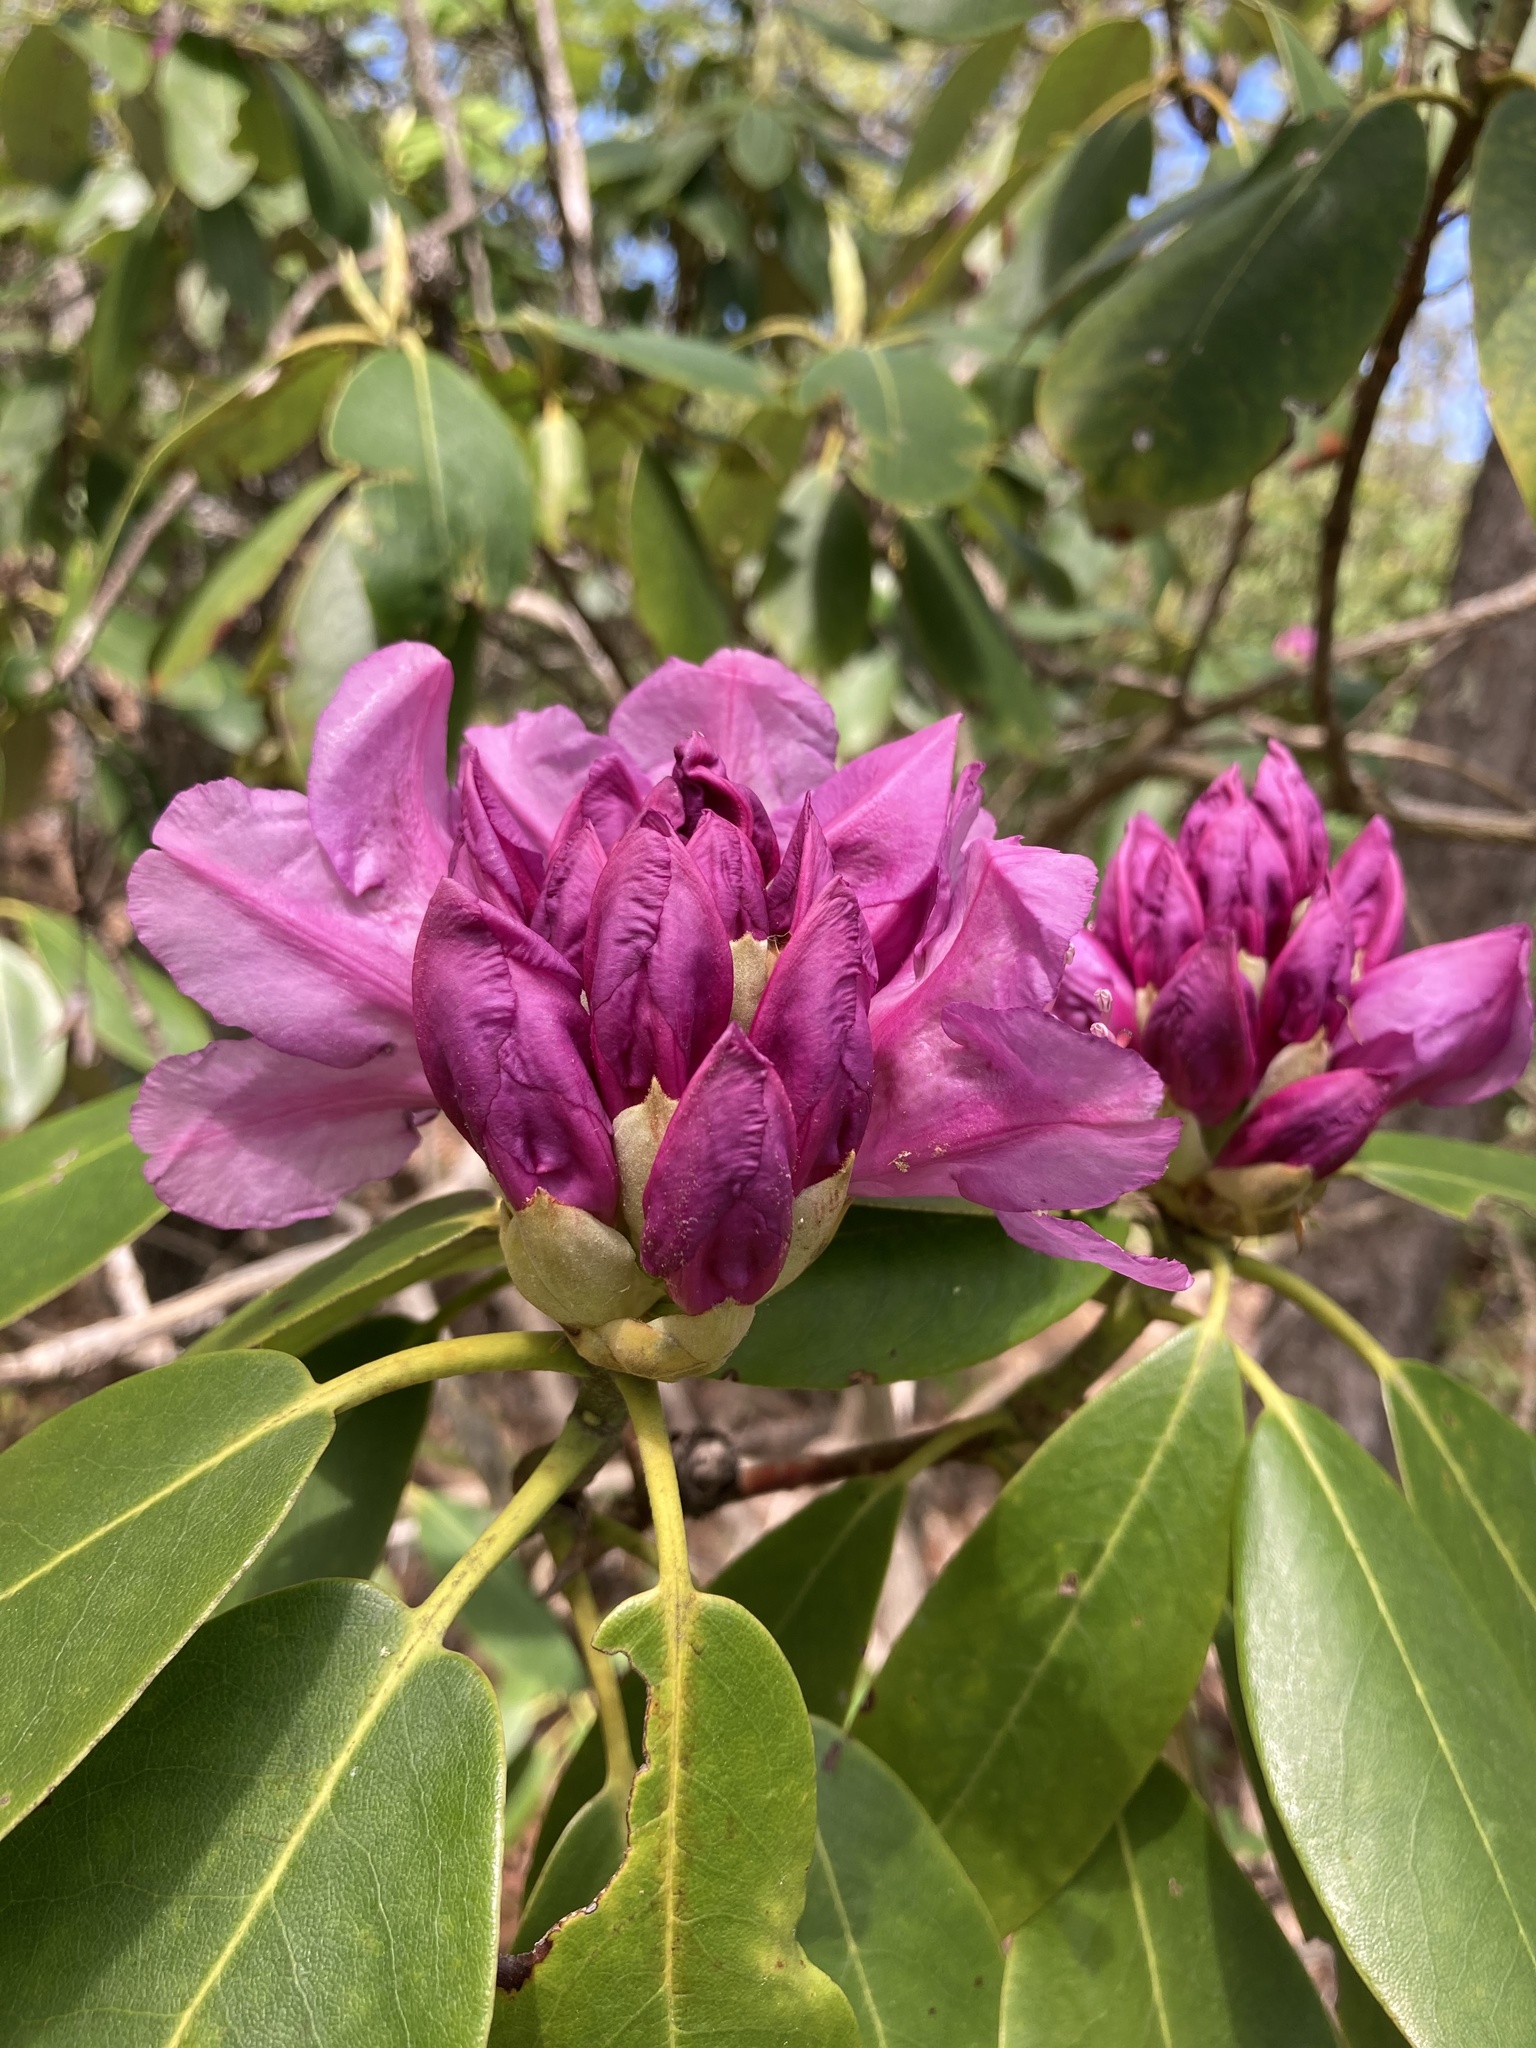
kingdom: Plantae
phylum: Tracheophyta
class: Magnoliopsida
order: Ericales
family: Ericaceae
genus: Rhododendron
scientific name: Rhododendron catawbiense
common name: Catawba rhododendron
